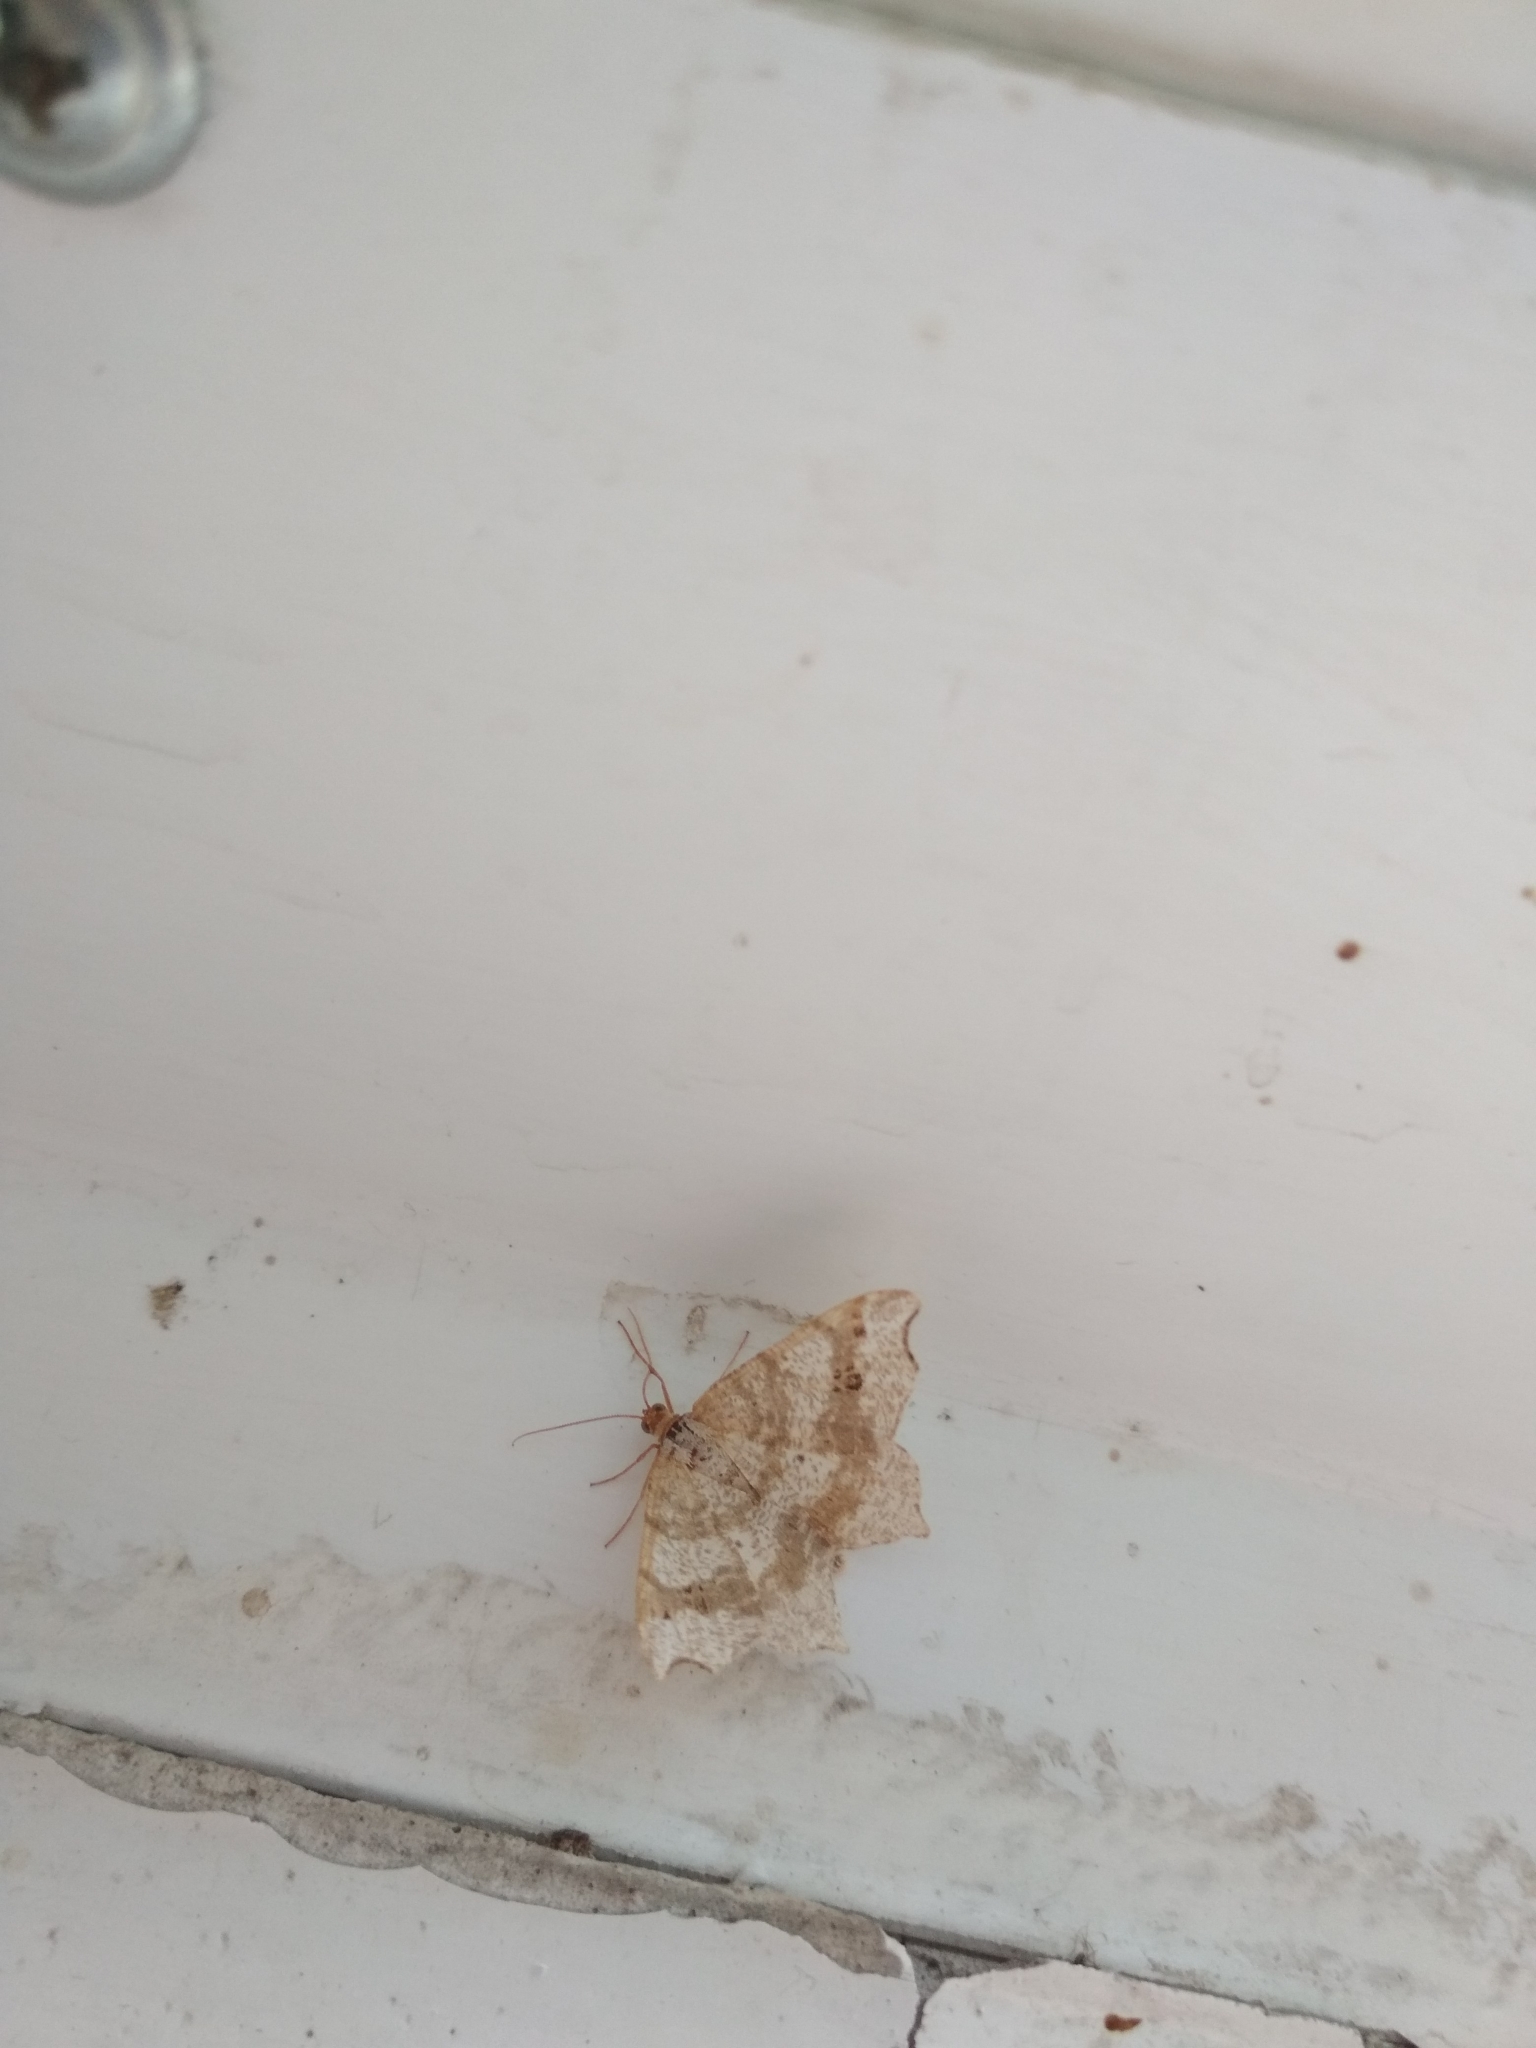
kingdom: Animalia
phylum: Arthropoda
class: Insecta
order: Lepidoptera
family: Geometridae
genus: Macaria
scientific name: Macaria shanghaisaria
